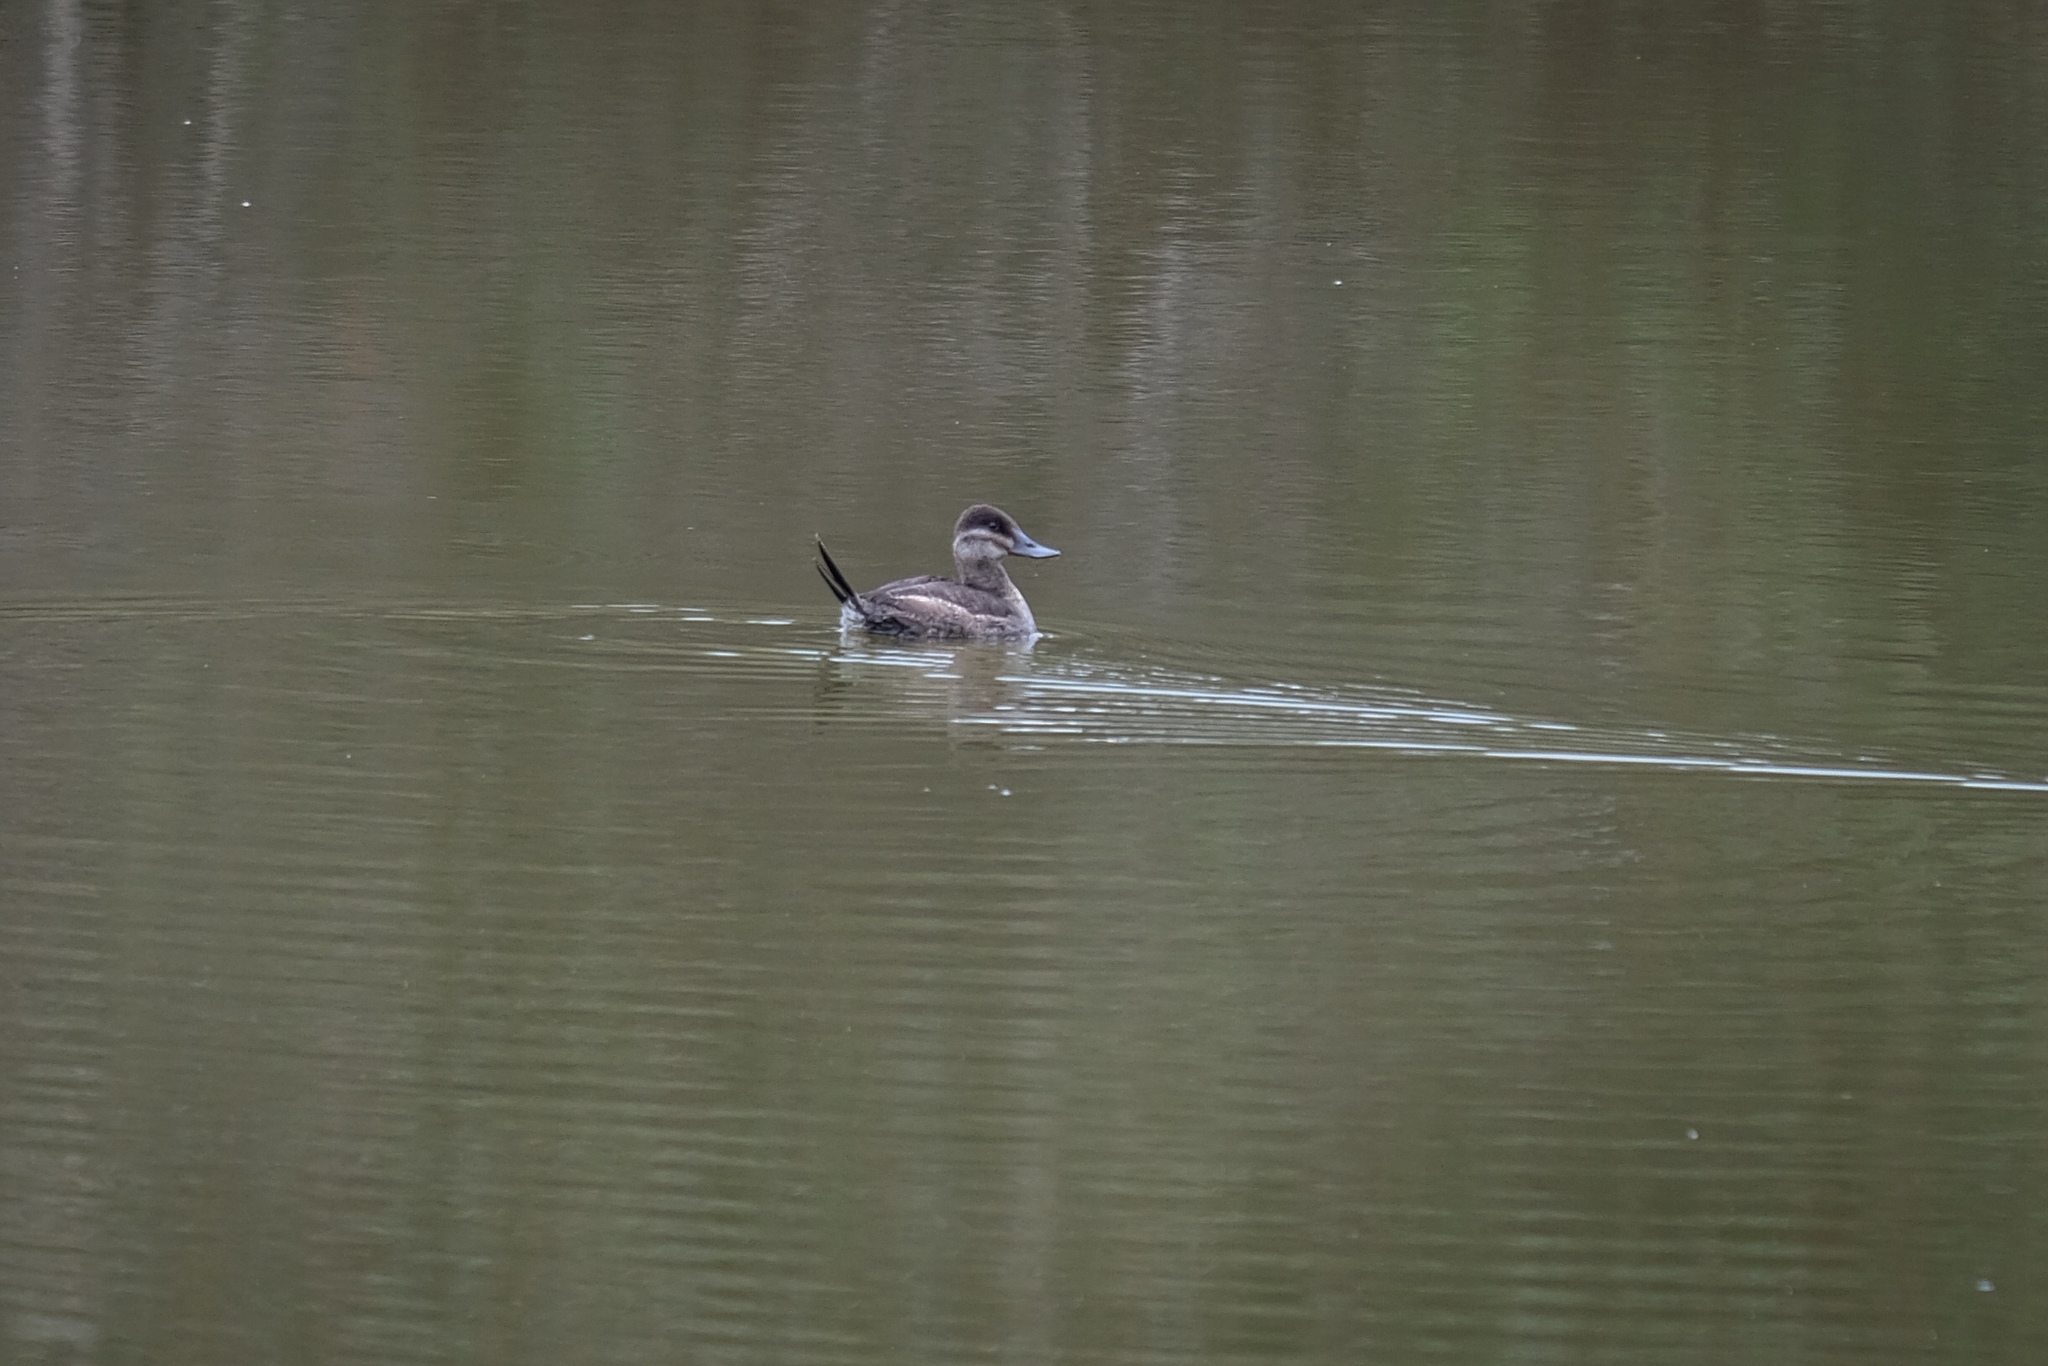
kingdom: Animalia
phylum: Chordata
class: Aves
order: Anseriformes
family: Anatidae
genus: Oxyura
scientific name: Oxyura jamaicensis
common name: Ruddy duck
